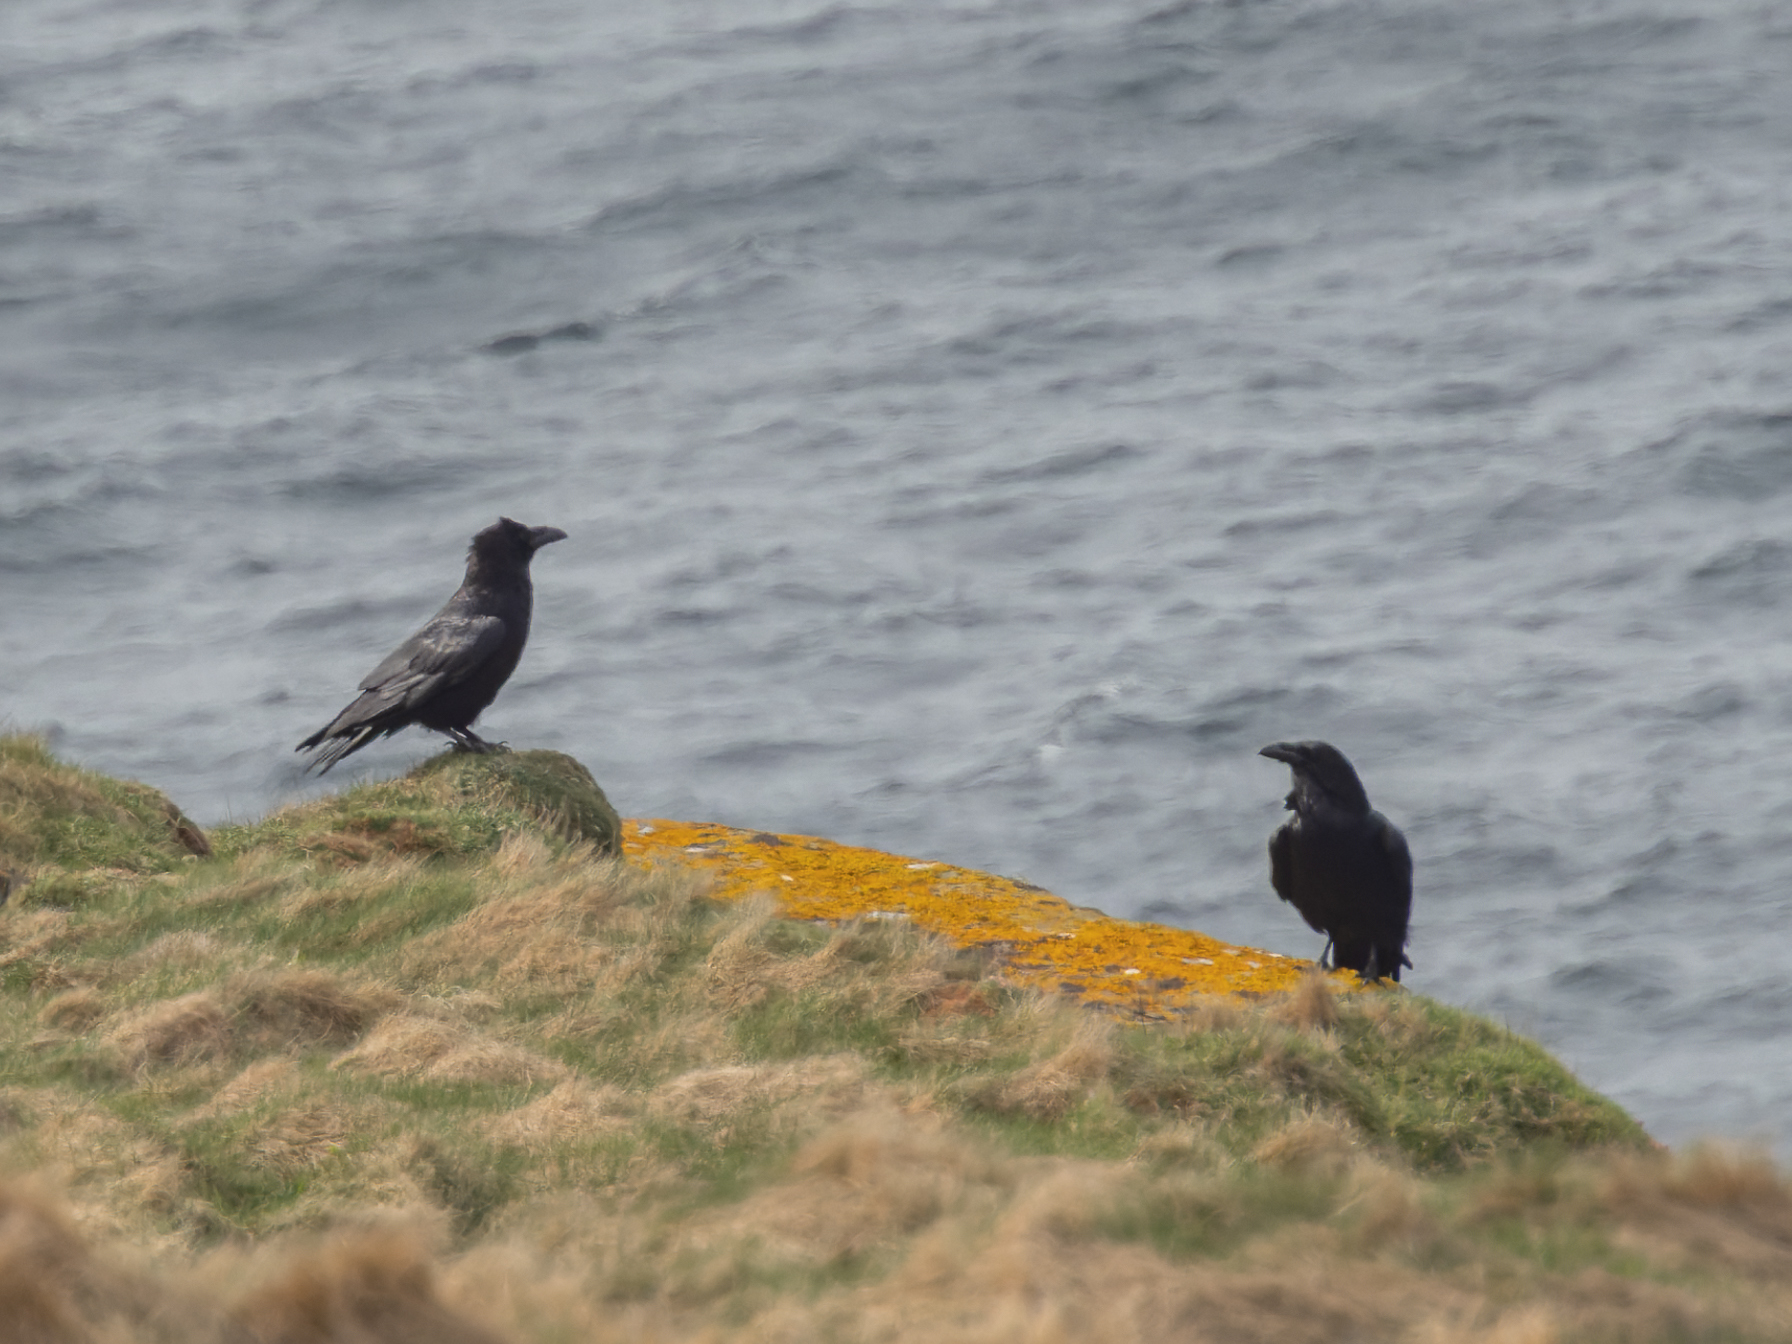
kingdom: Animalia
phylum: Chordata
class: Aves
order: Passeriformes
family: Corvidae
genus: Corvus
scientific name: Corvus corax
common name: Common raven
